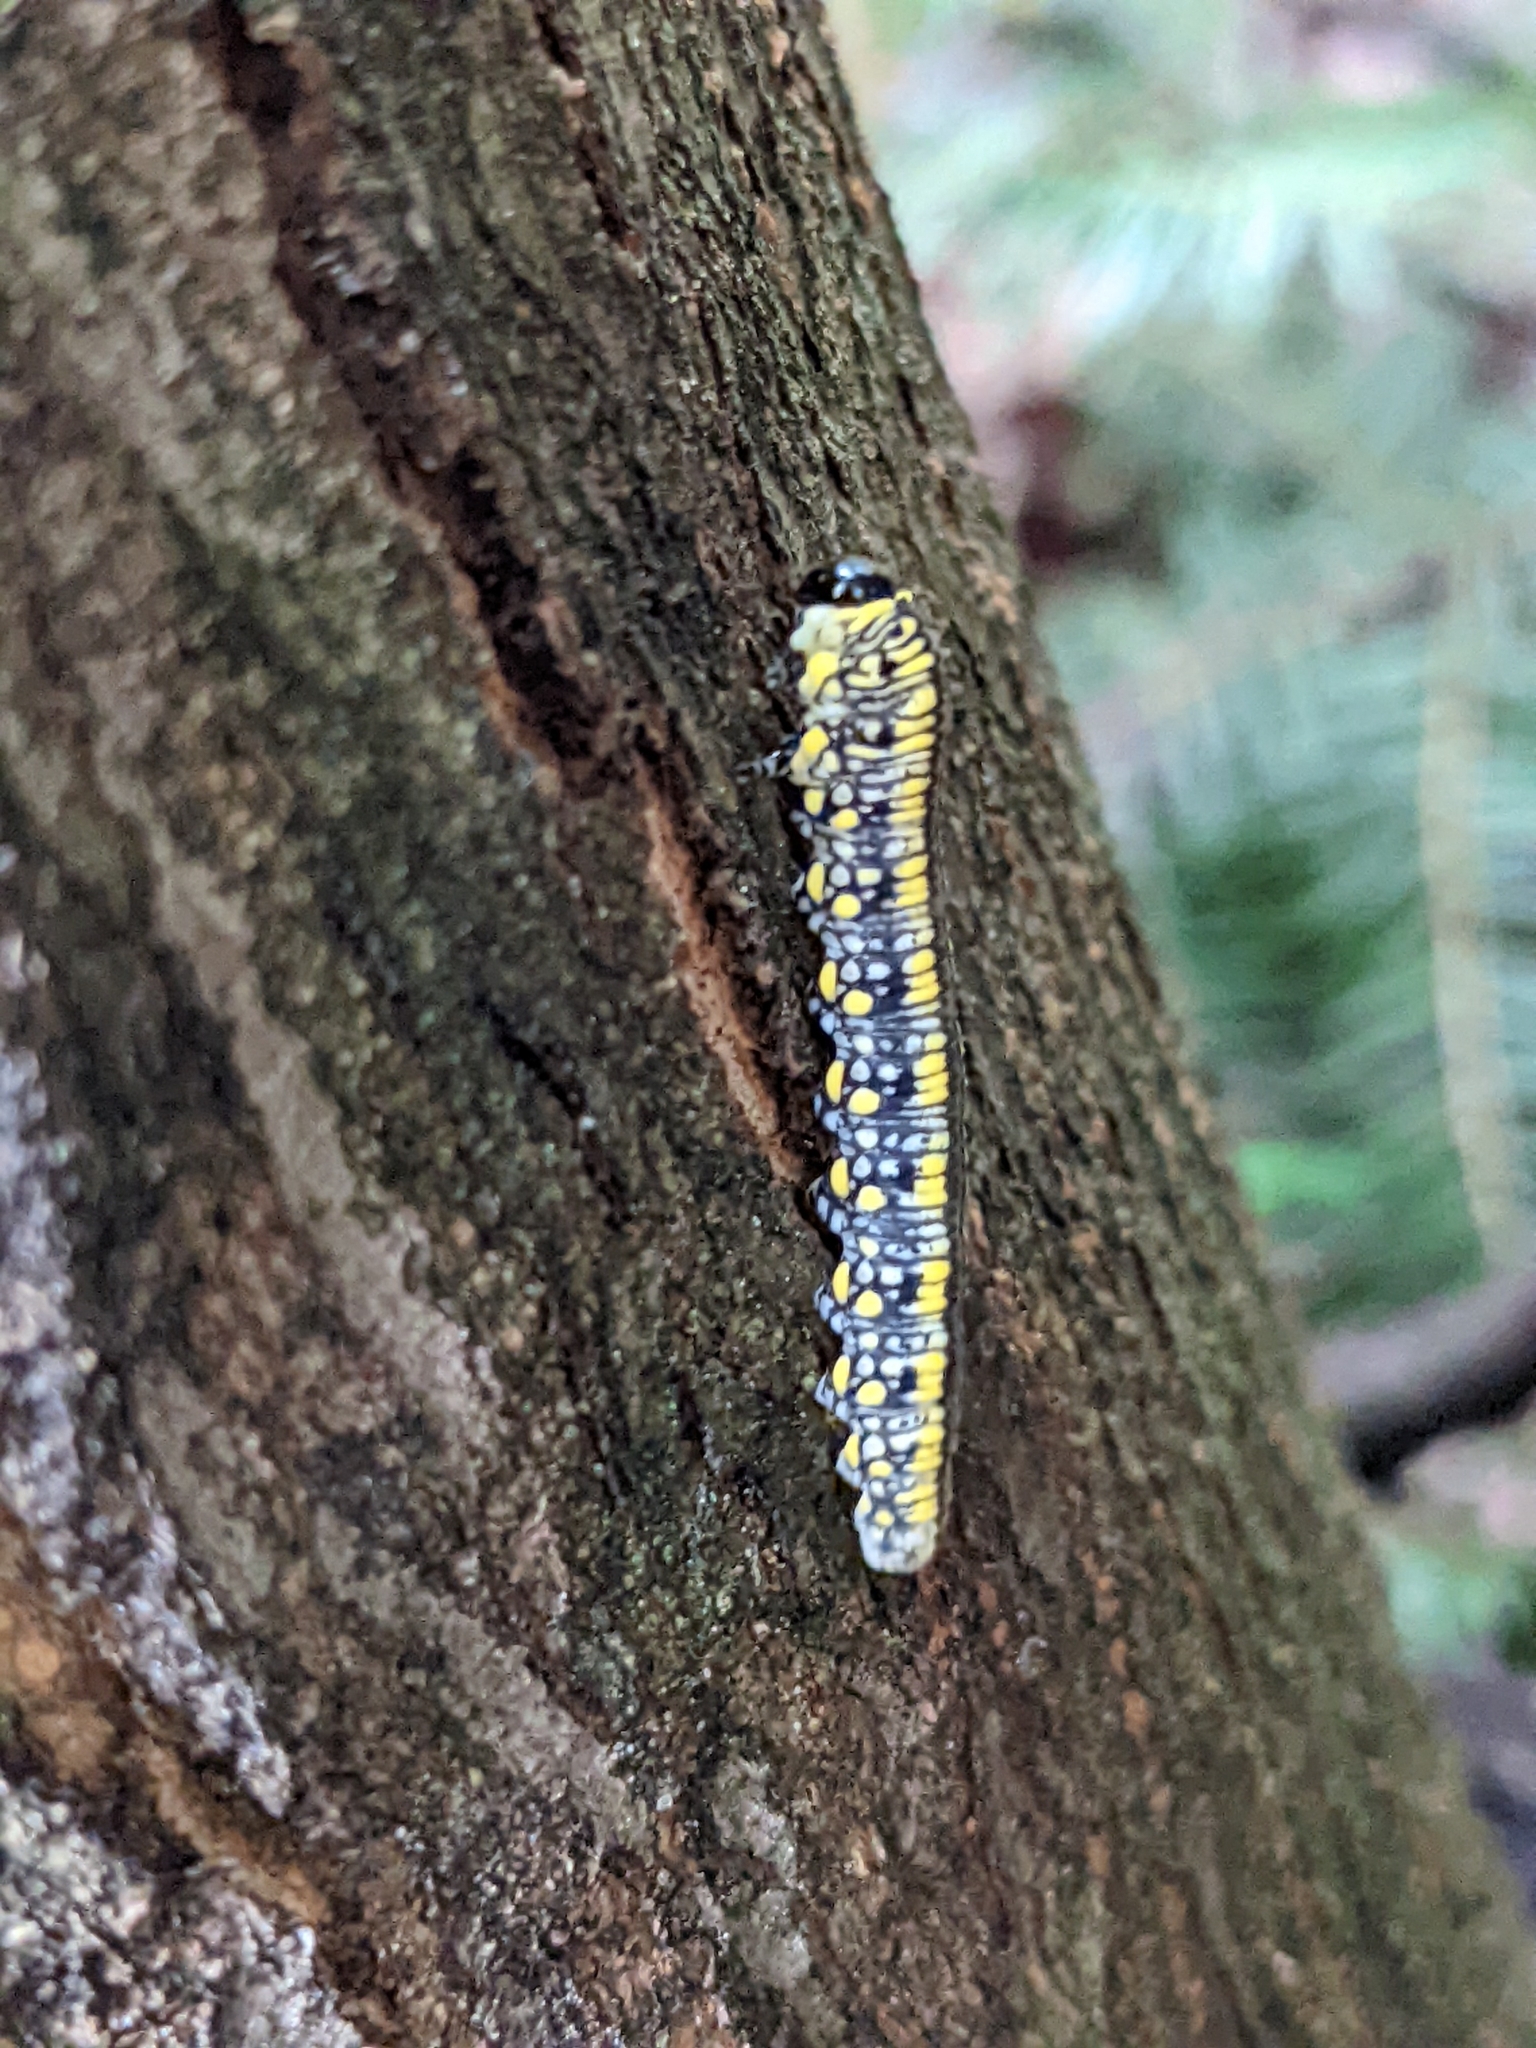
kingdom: Animalia
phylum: Arthropoda
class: Insecta
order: Hymenoptera
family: Diprionidae
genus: Diprion
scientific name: Diprion similis
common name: Pine sawfly
